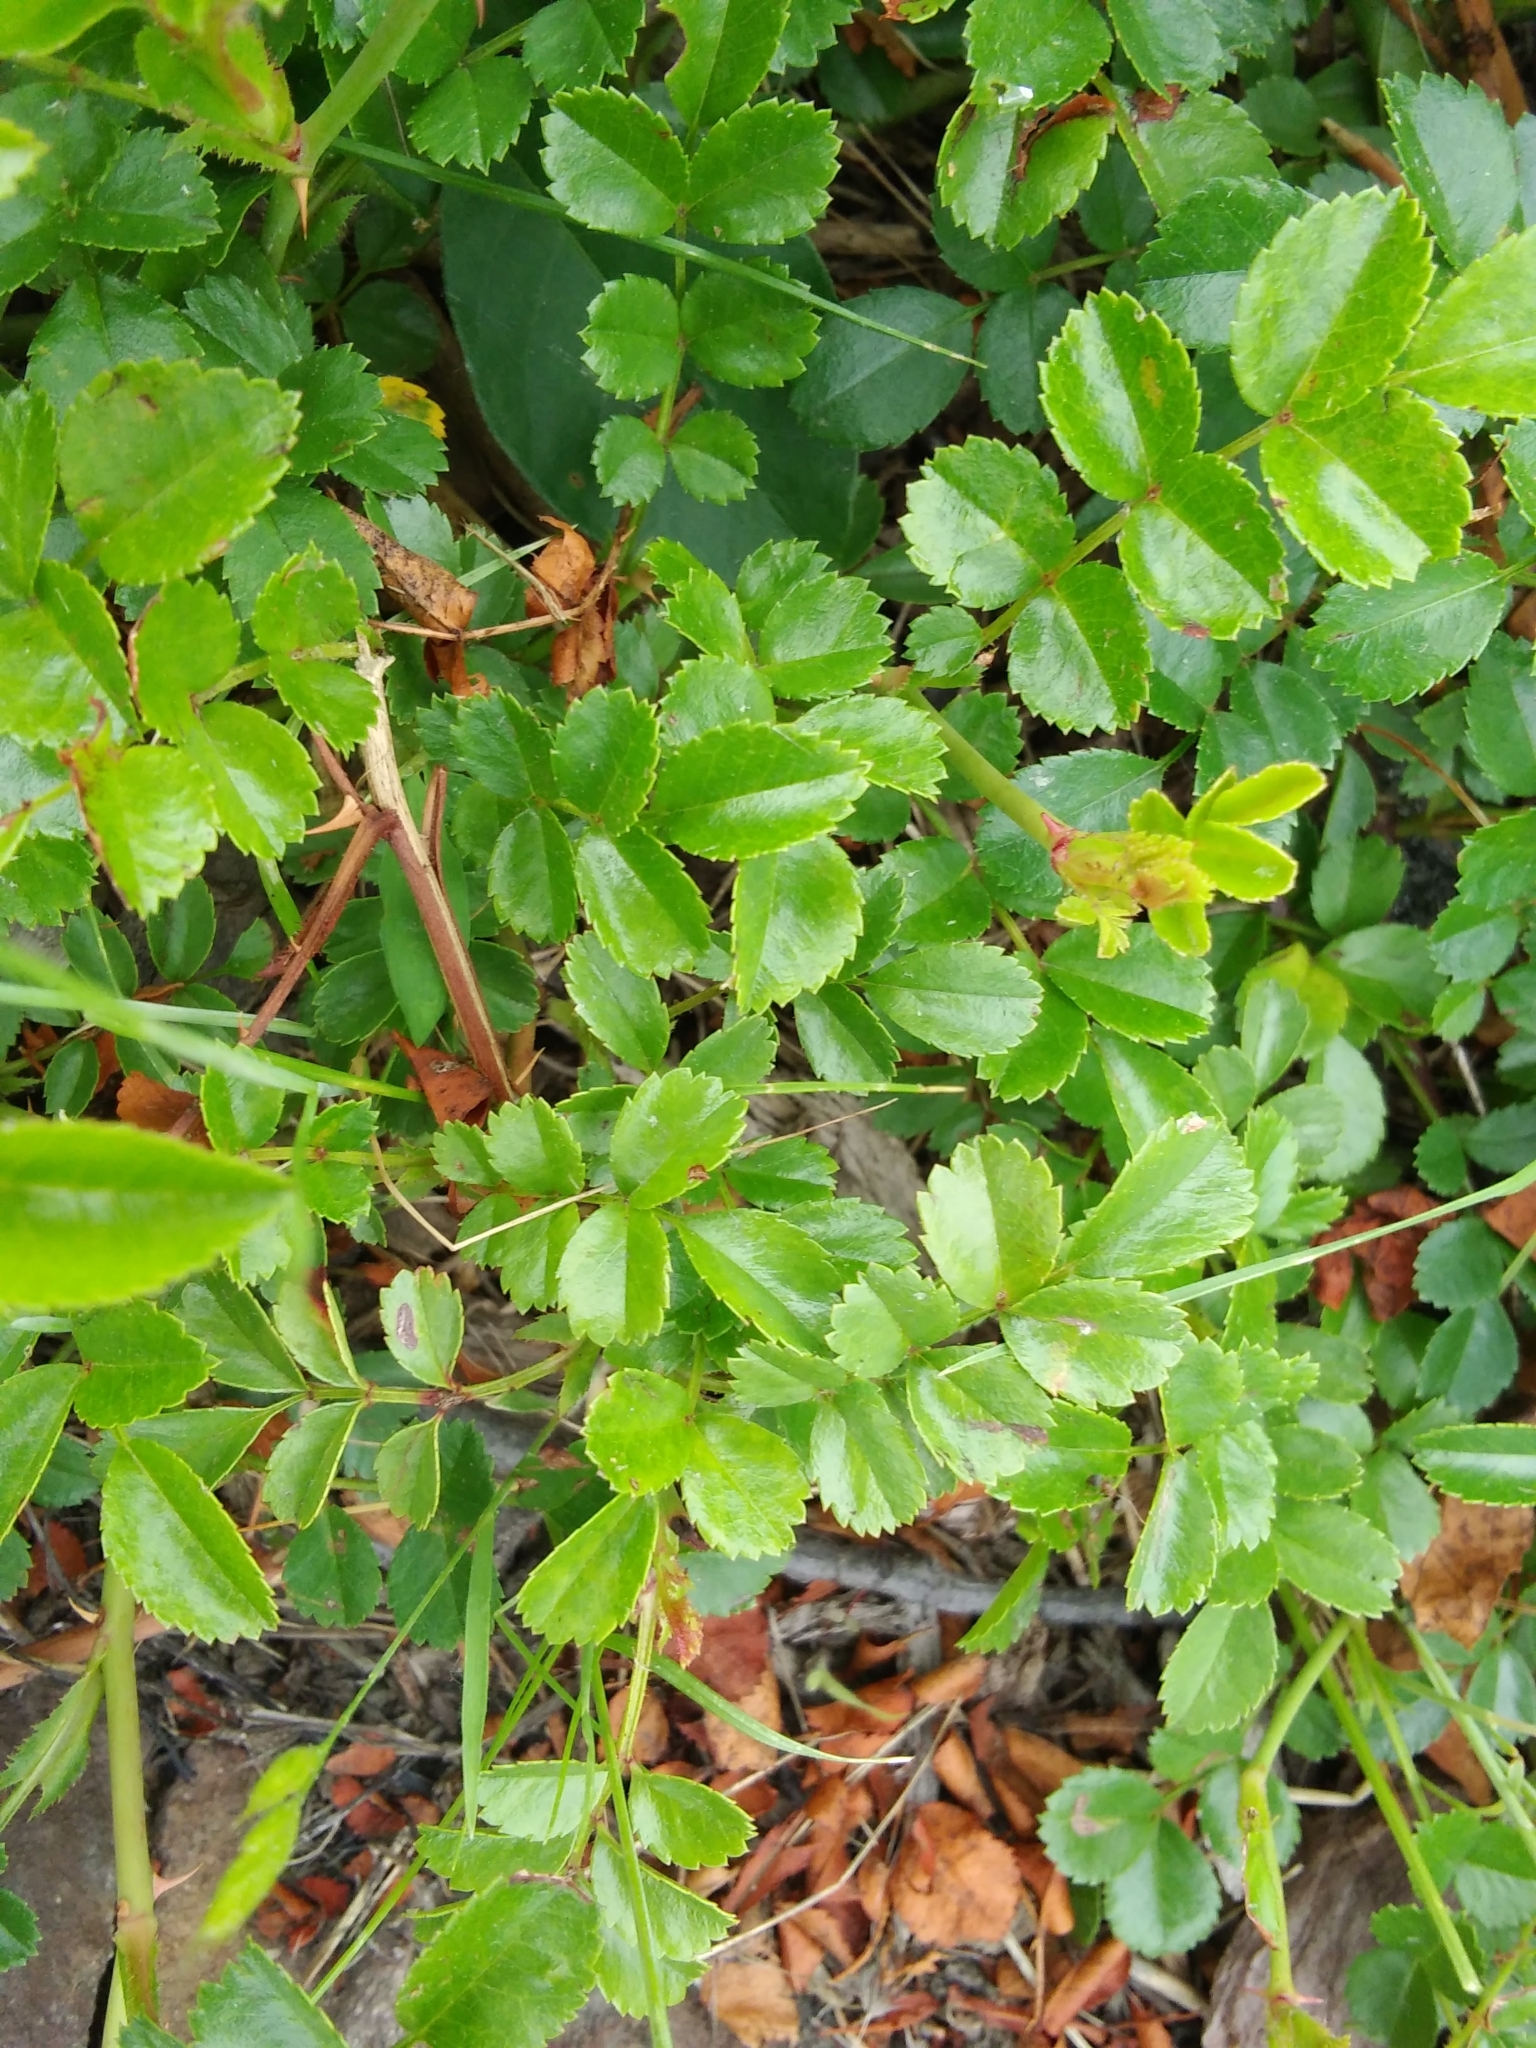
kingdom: Plantae
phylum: Tracheophyta
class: Magnoliopsida
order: Rosales
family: Rosaceae
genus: Rosa
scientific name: Rosa multiflora
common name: Multiflora rose
